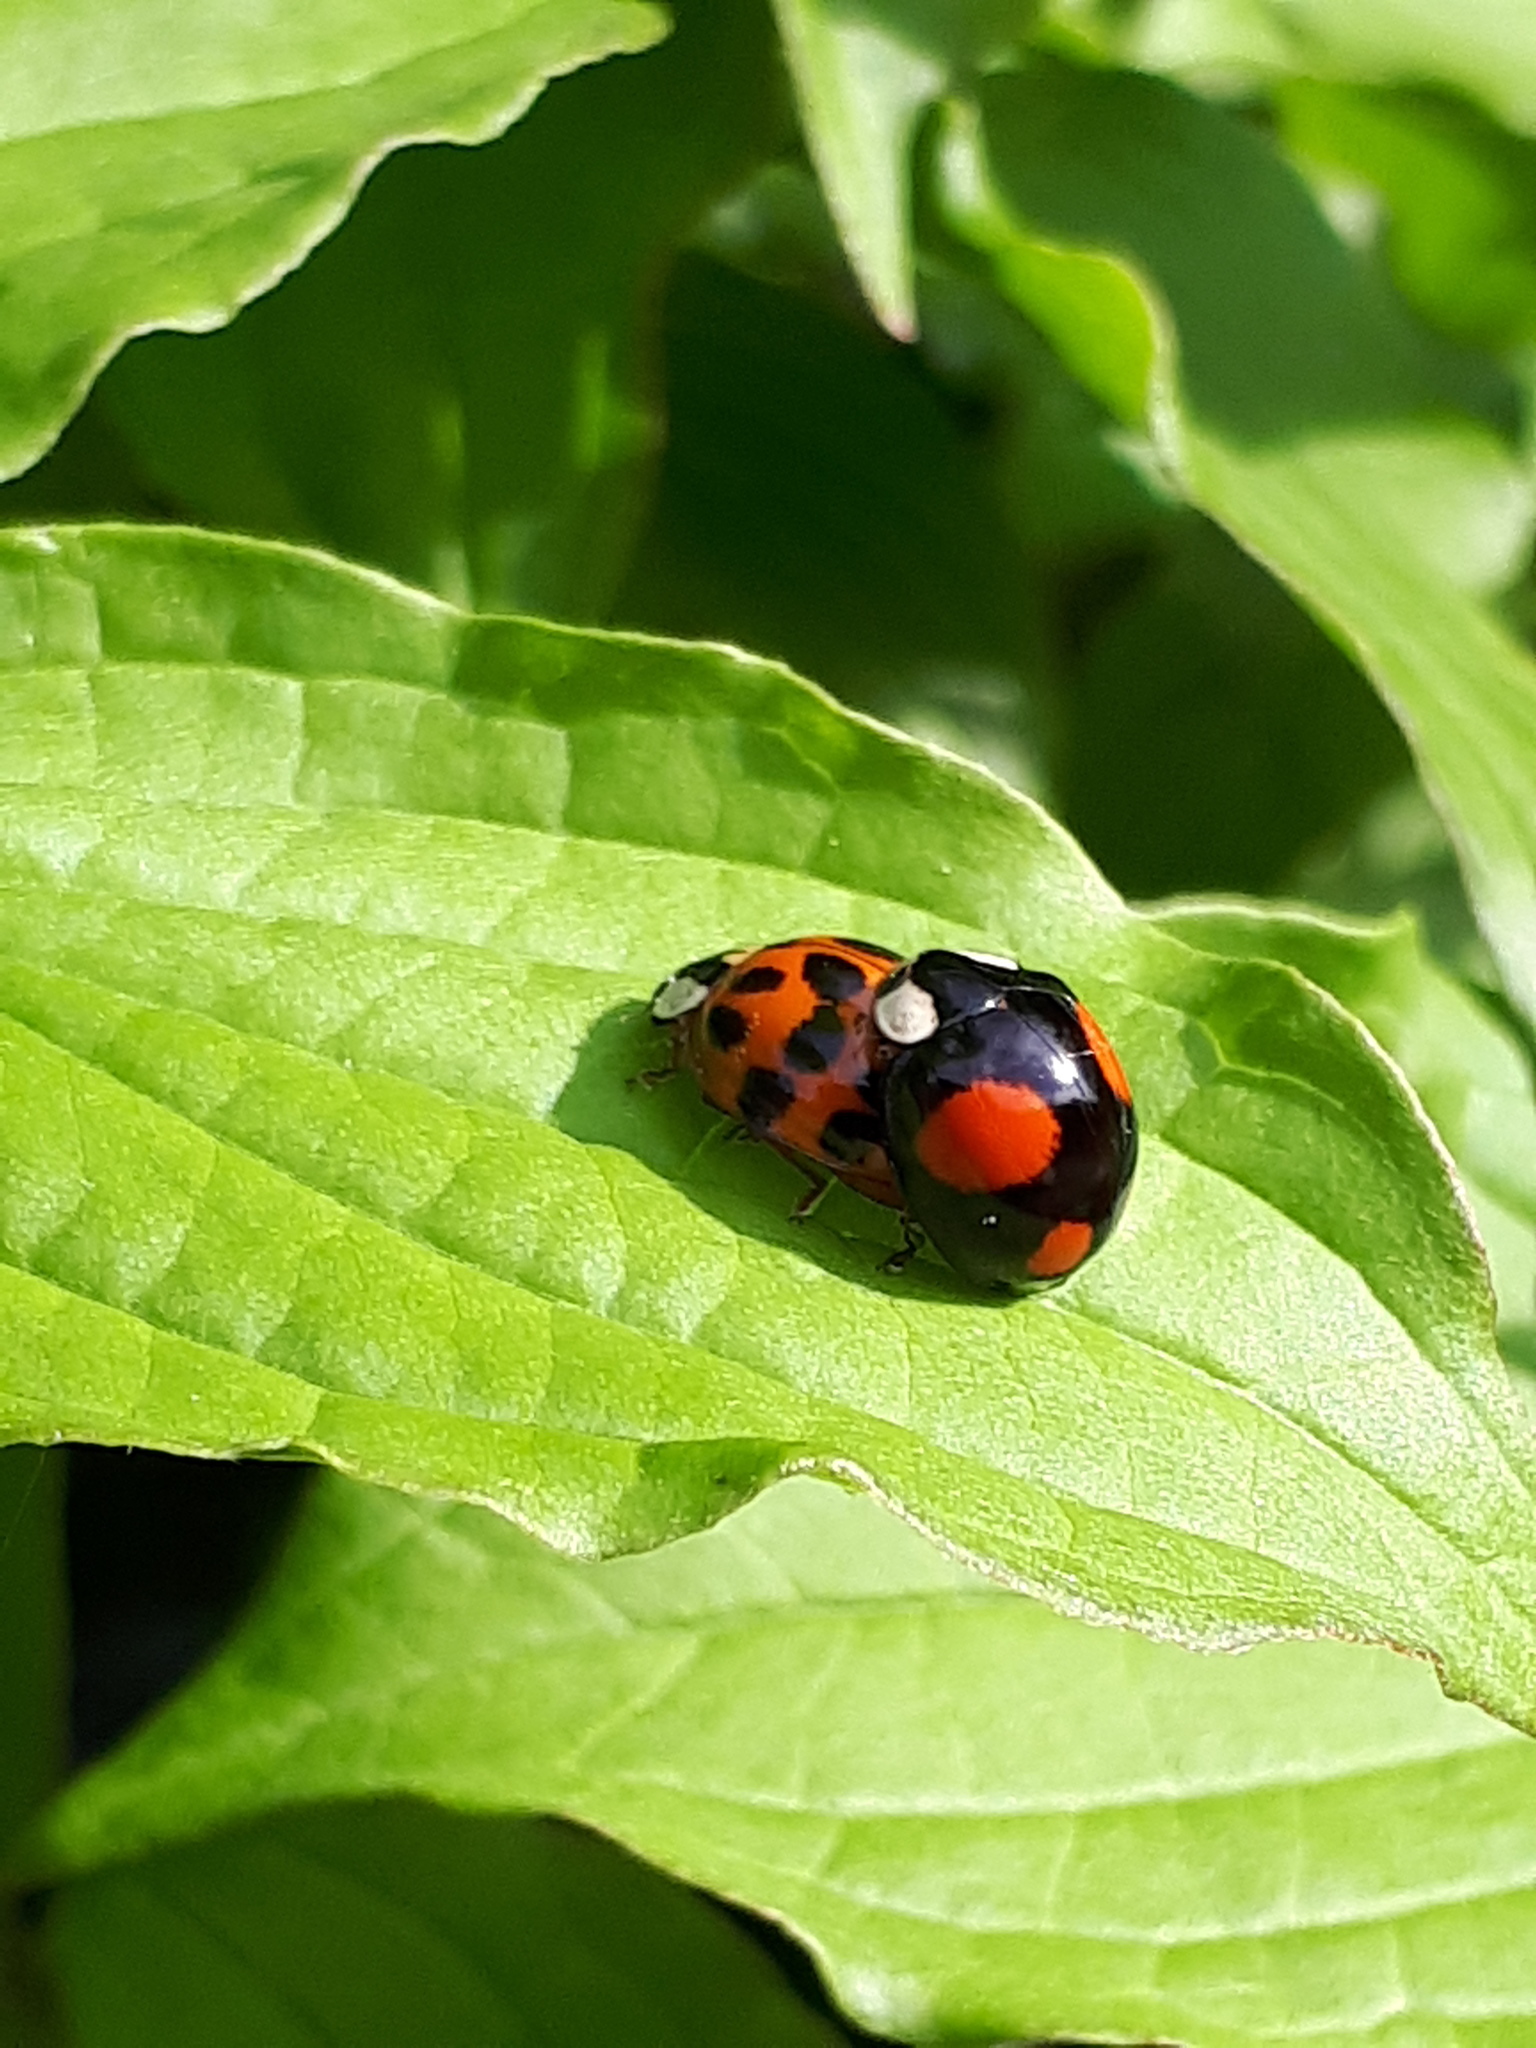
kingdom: Animalia
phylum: Arthropoda
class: Insecta
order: Coleoptera
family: Coccinellidae
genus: Harmonia
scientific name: Harmonia axyridis
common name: Harlequin ladybird
